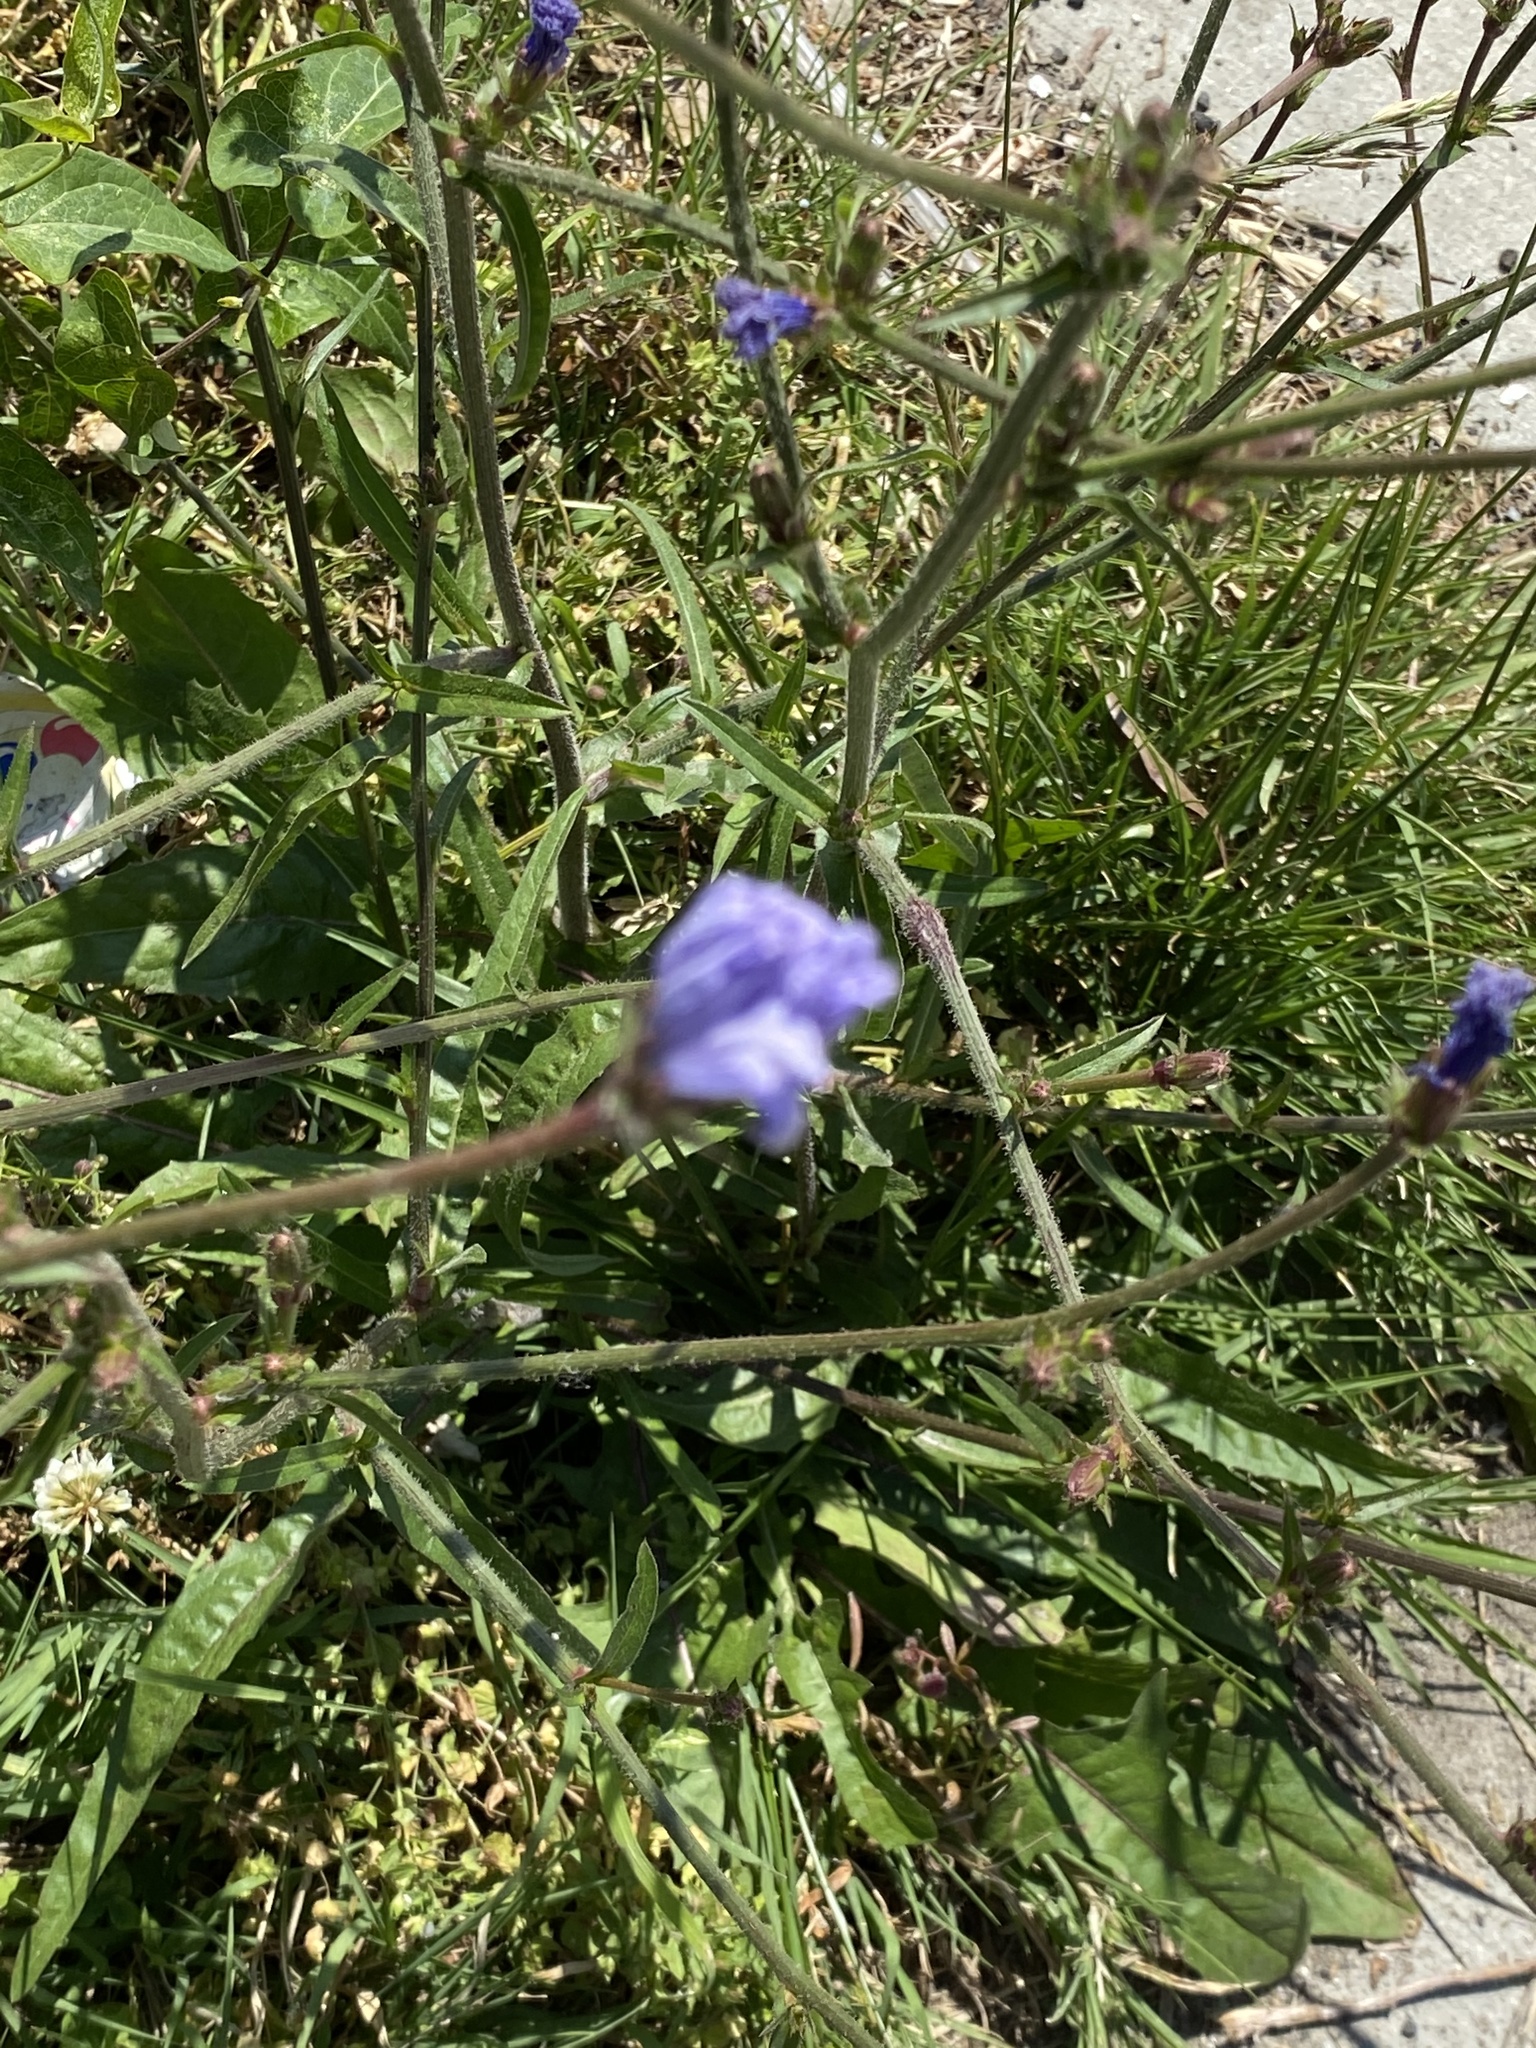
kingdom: Plantae
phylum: Tracheophyta
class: Magnoliopsida
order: Asterales
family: Asteraceae
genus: Cichorium
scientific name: Cichorium intybus
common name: Chicory
